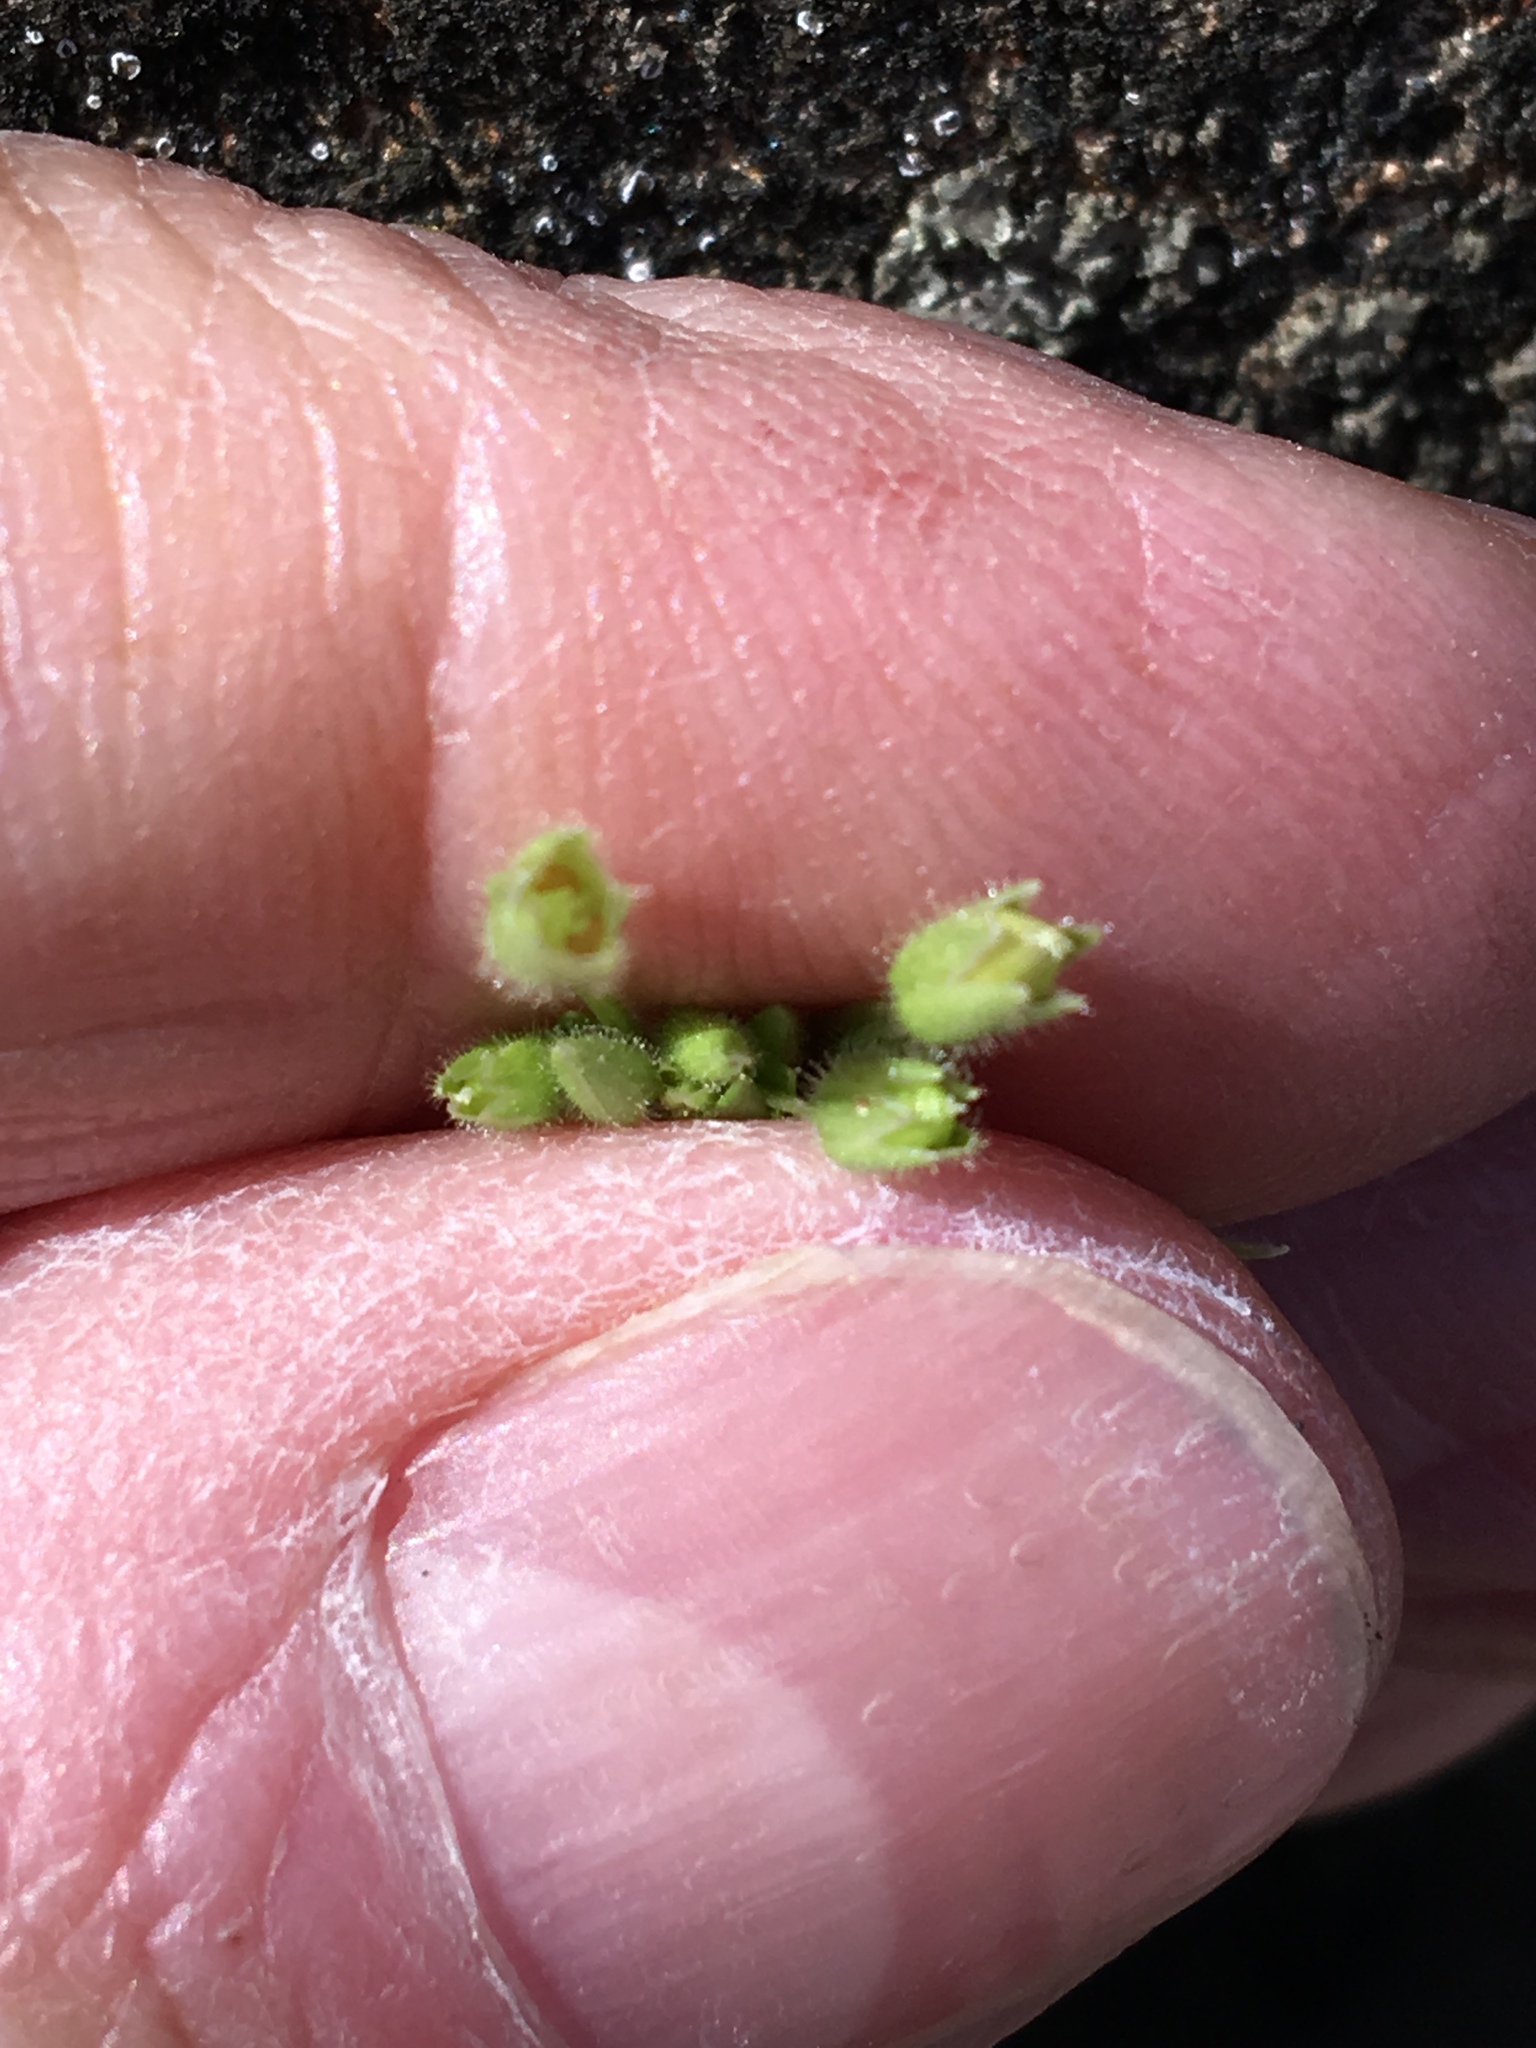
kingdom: Plantae
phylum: Tracheophyta
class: Magnoliopsida
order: Caryophyllales
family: Caryophyllaceae
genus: Stellaria
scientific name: Stellaria apetala
